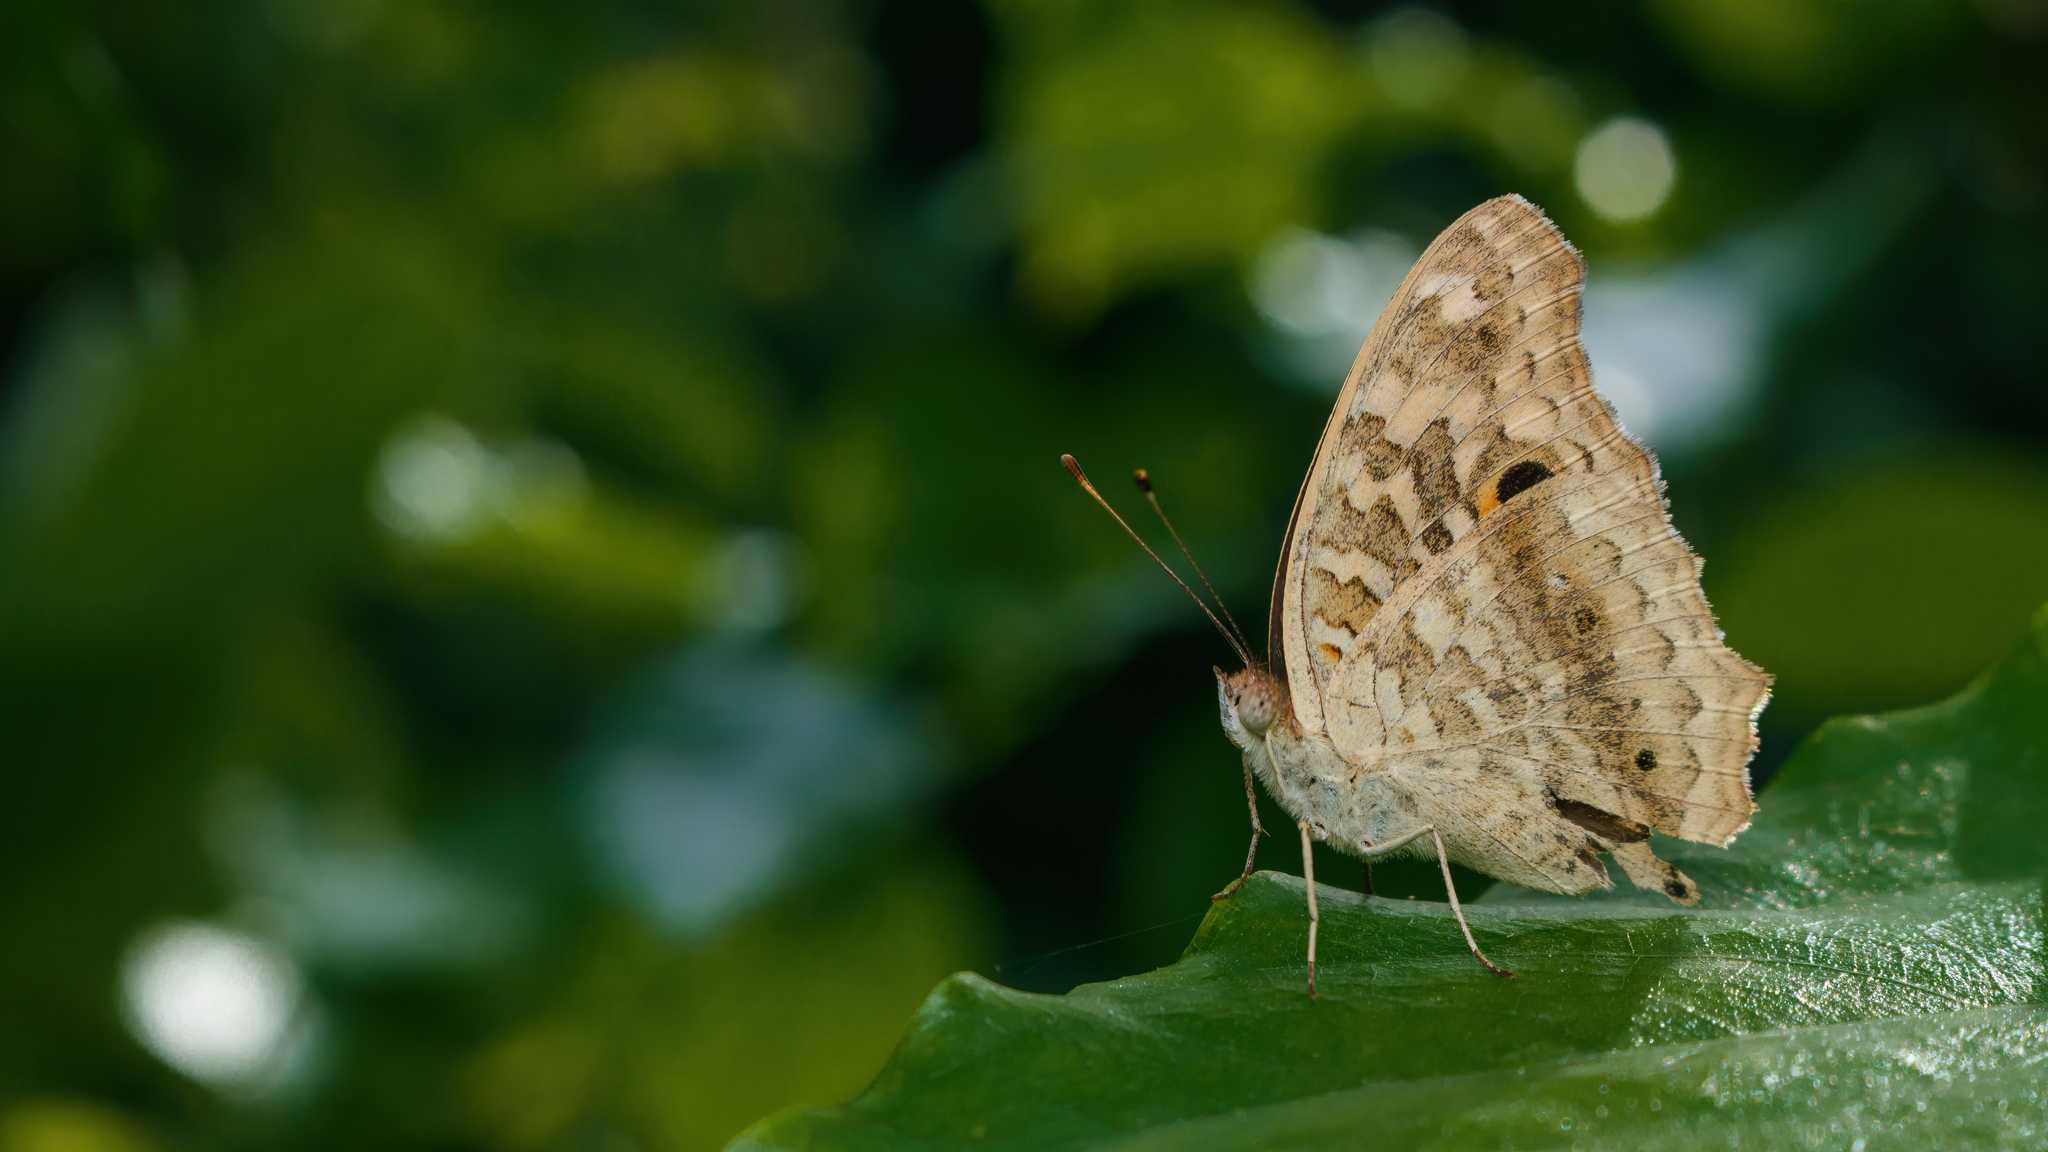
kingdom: Animalia
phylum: Arthropoda
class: Insecta
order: Lepidoptera
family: Nymphalidae
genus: Junonia
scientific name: Junonia lemonias
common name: Lemon pansy
